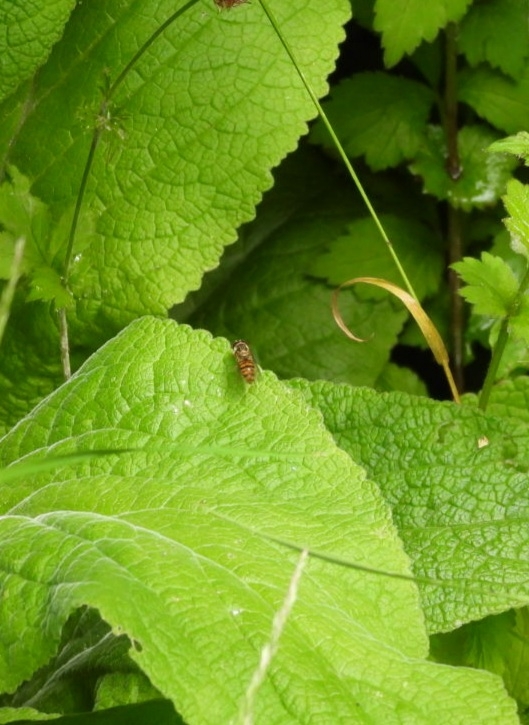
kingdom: Animalia
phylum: Arthropoda
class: Insecta
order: Diptera
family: Syrphidae
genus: Episyrphus
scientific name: Episyrphus balteatus
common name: Marmalade hoverfly
